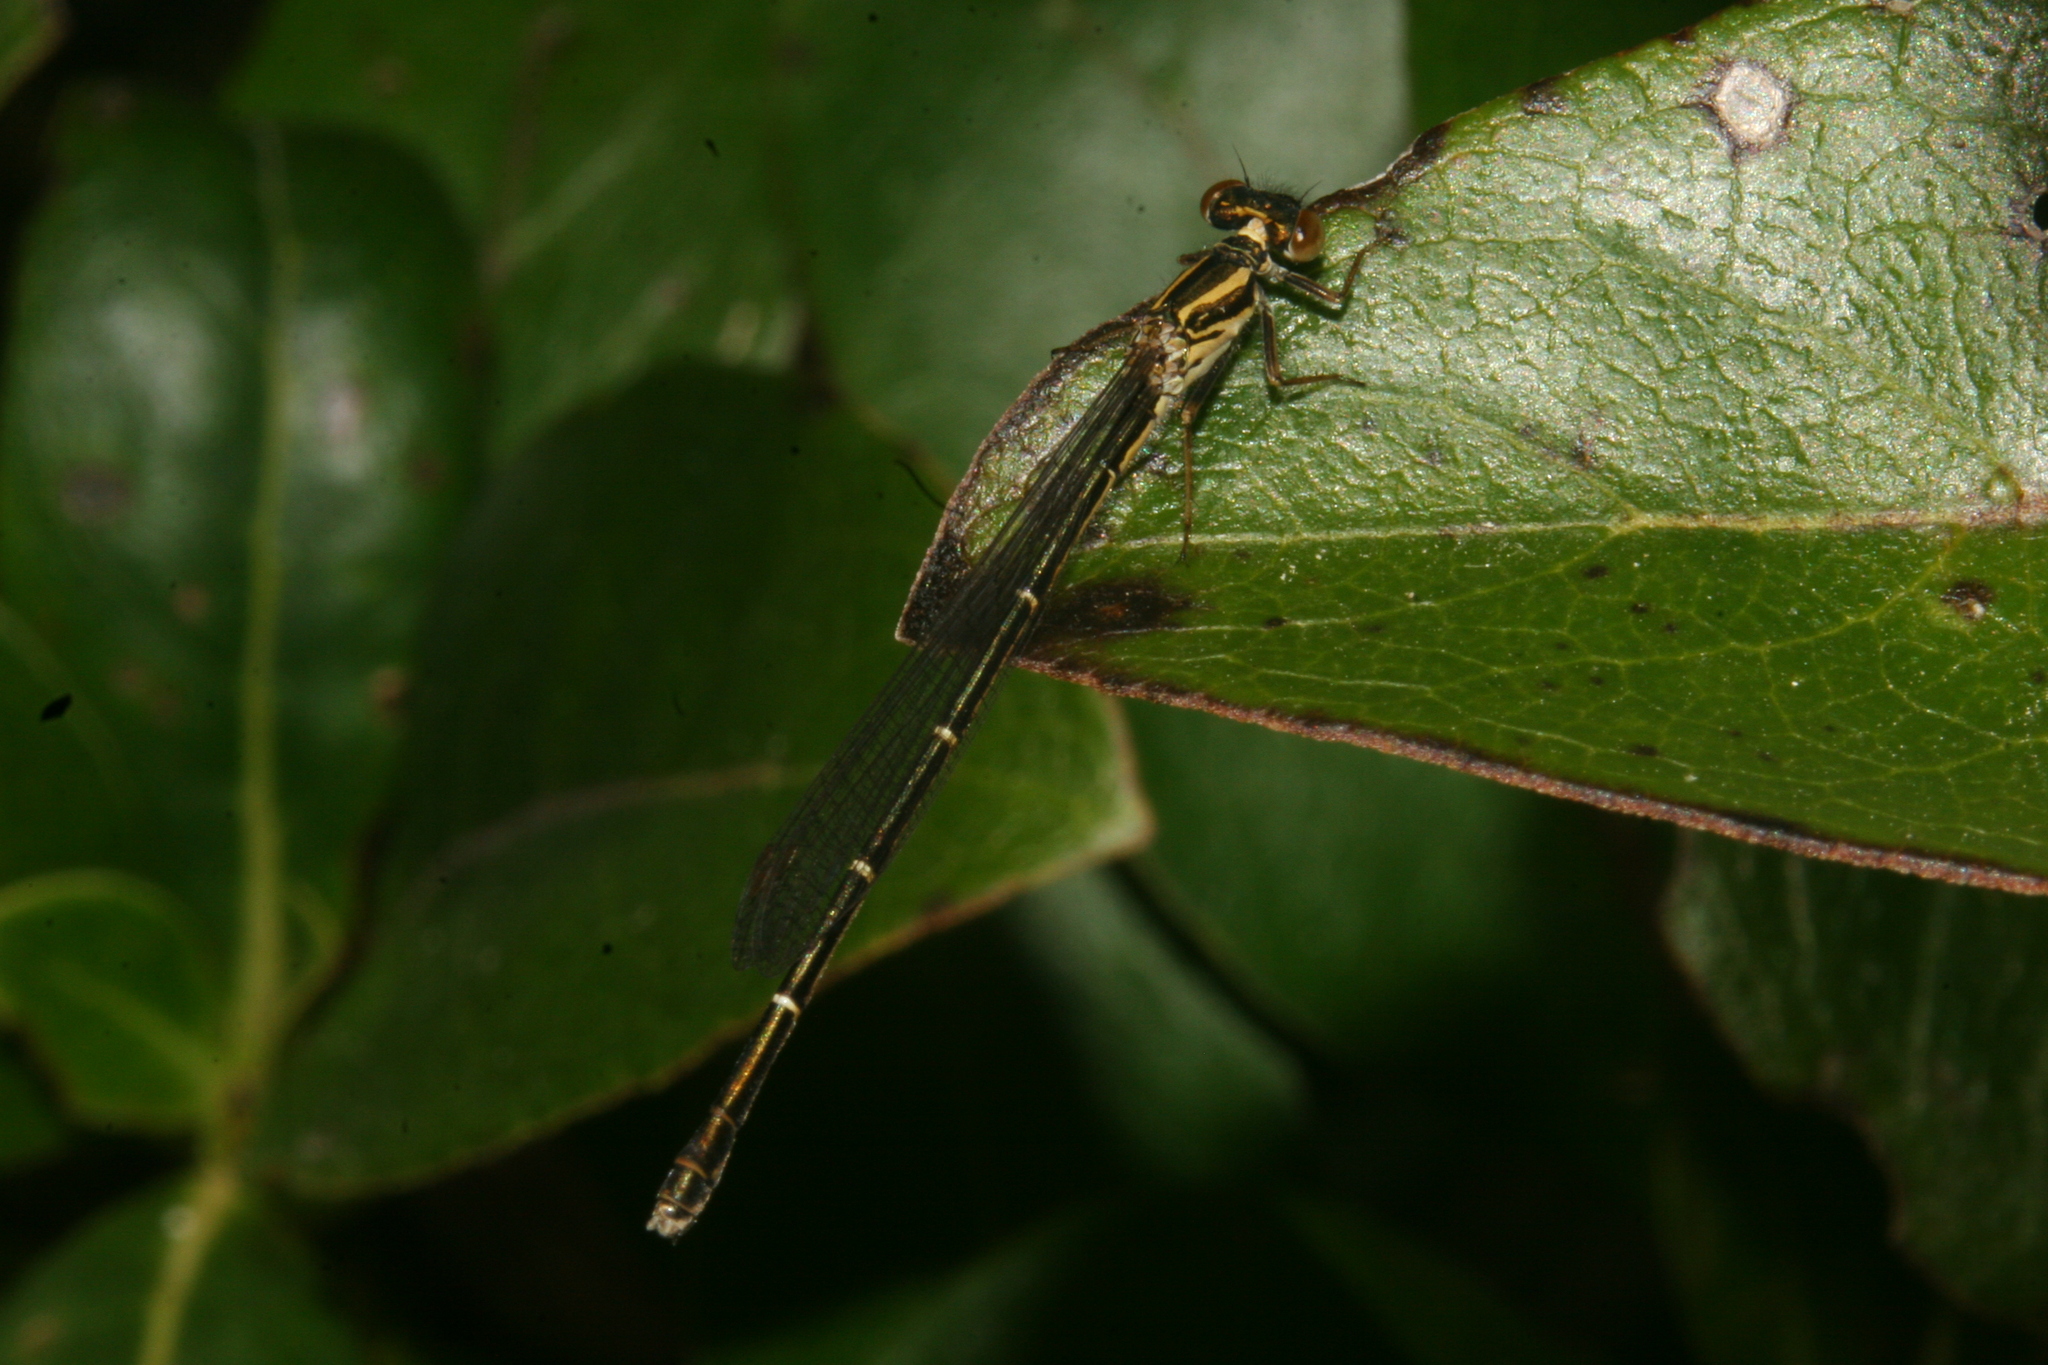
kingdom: Animalia
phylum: Arthropoda
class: Insecta
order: Odonata
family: Coenagrionidae
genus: Xanthocnemis
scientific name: Xanthocnemis zealandica
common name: Common redcoat damselfly
